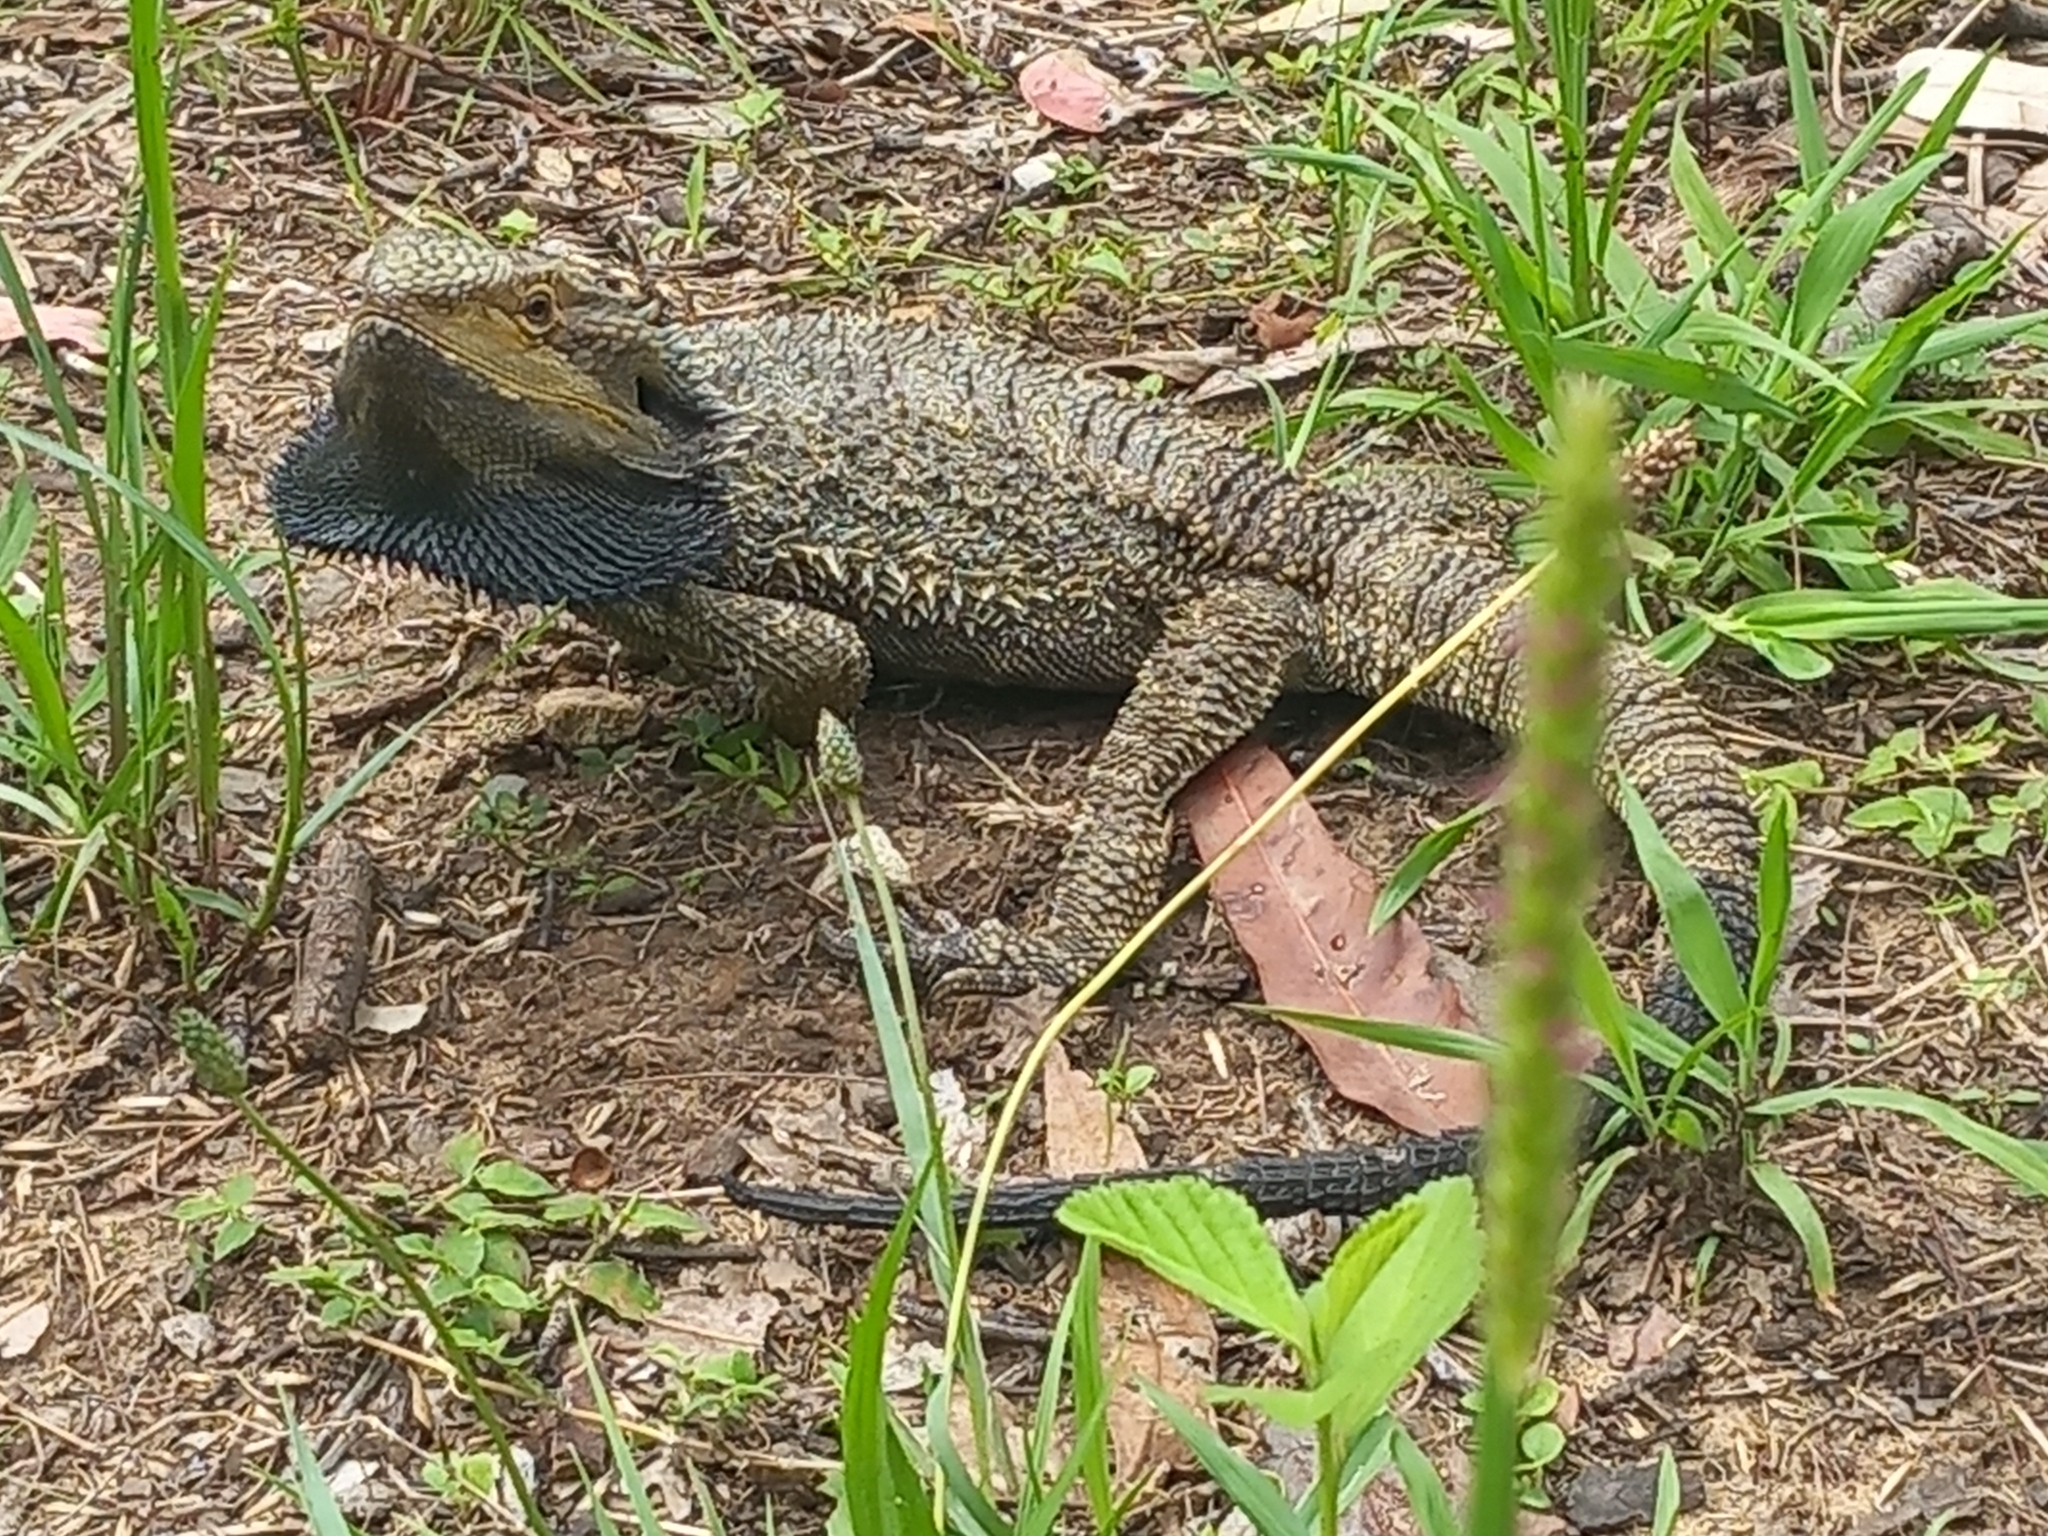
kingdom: Animalia
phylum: Chordata
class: Squamata
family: Agamidae
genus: Pogona
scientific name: Pogona barbata
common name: Bearded dragon
